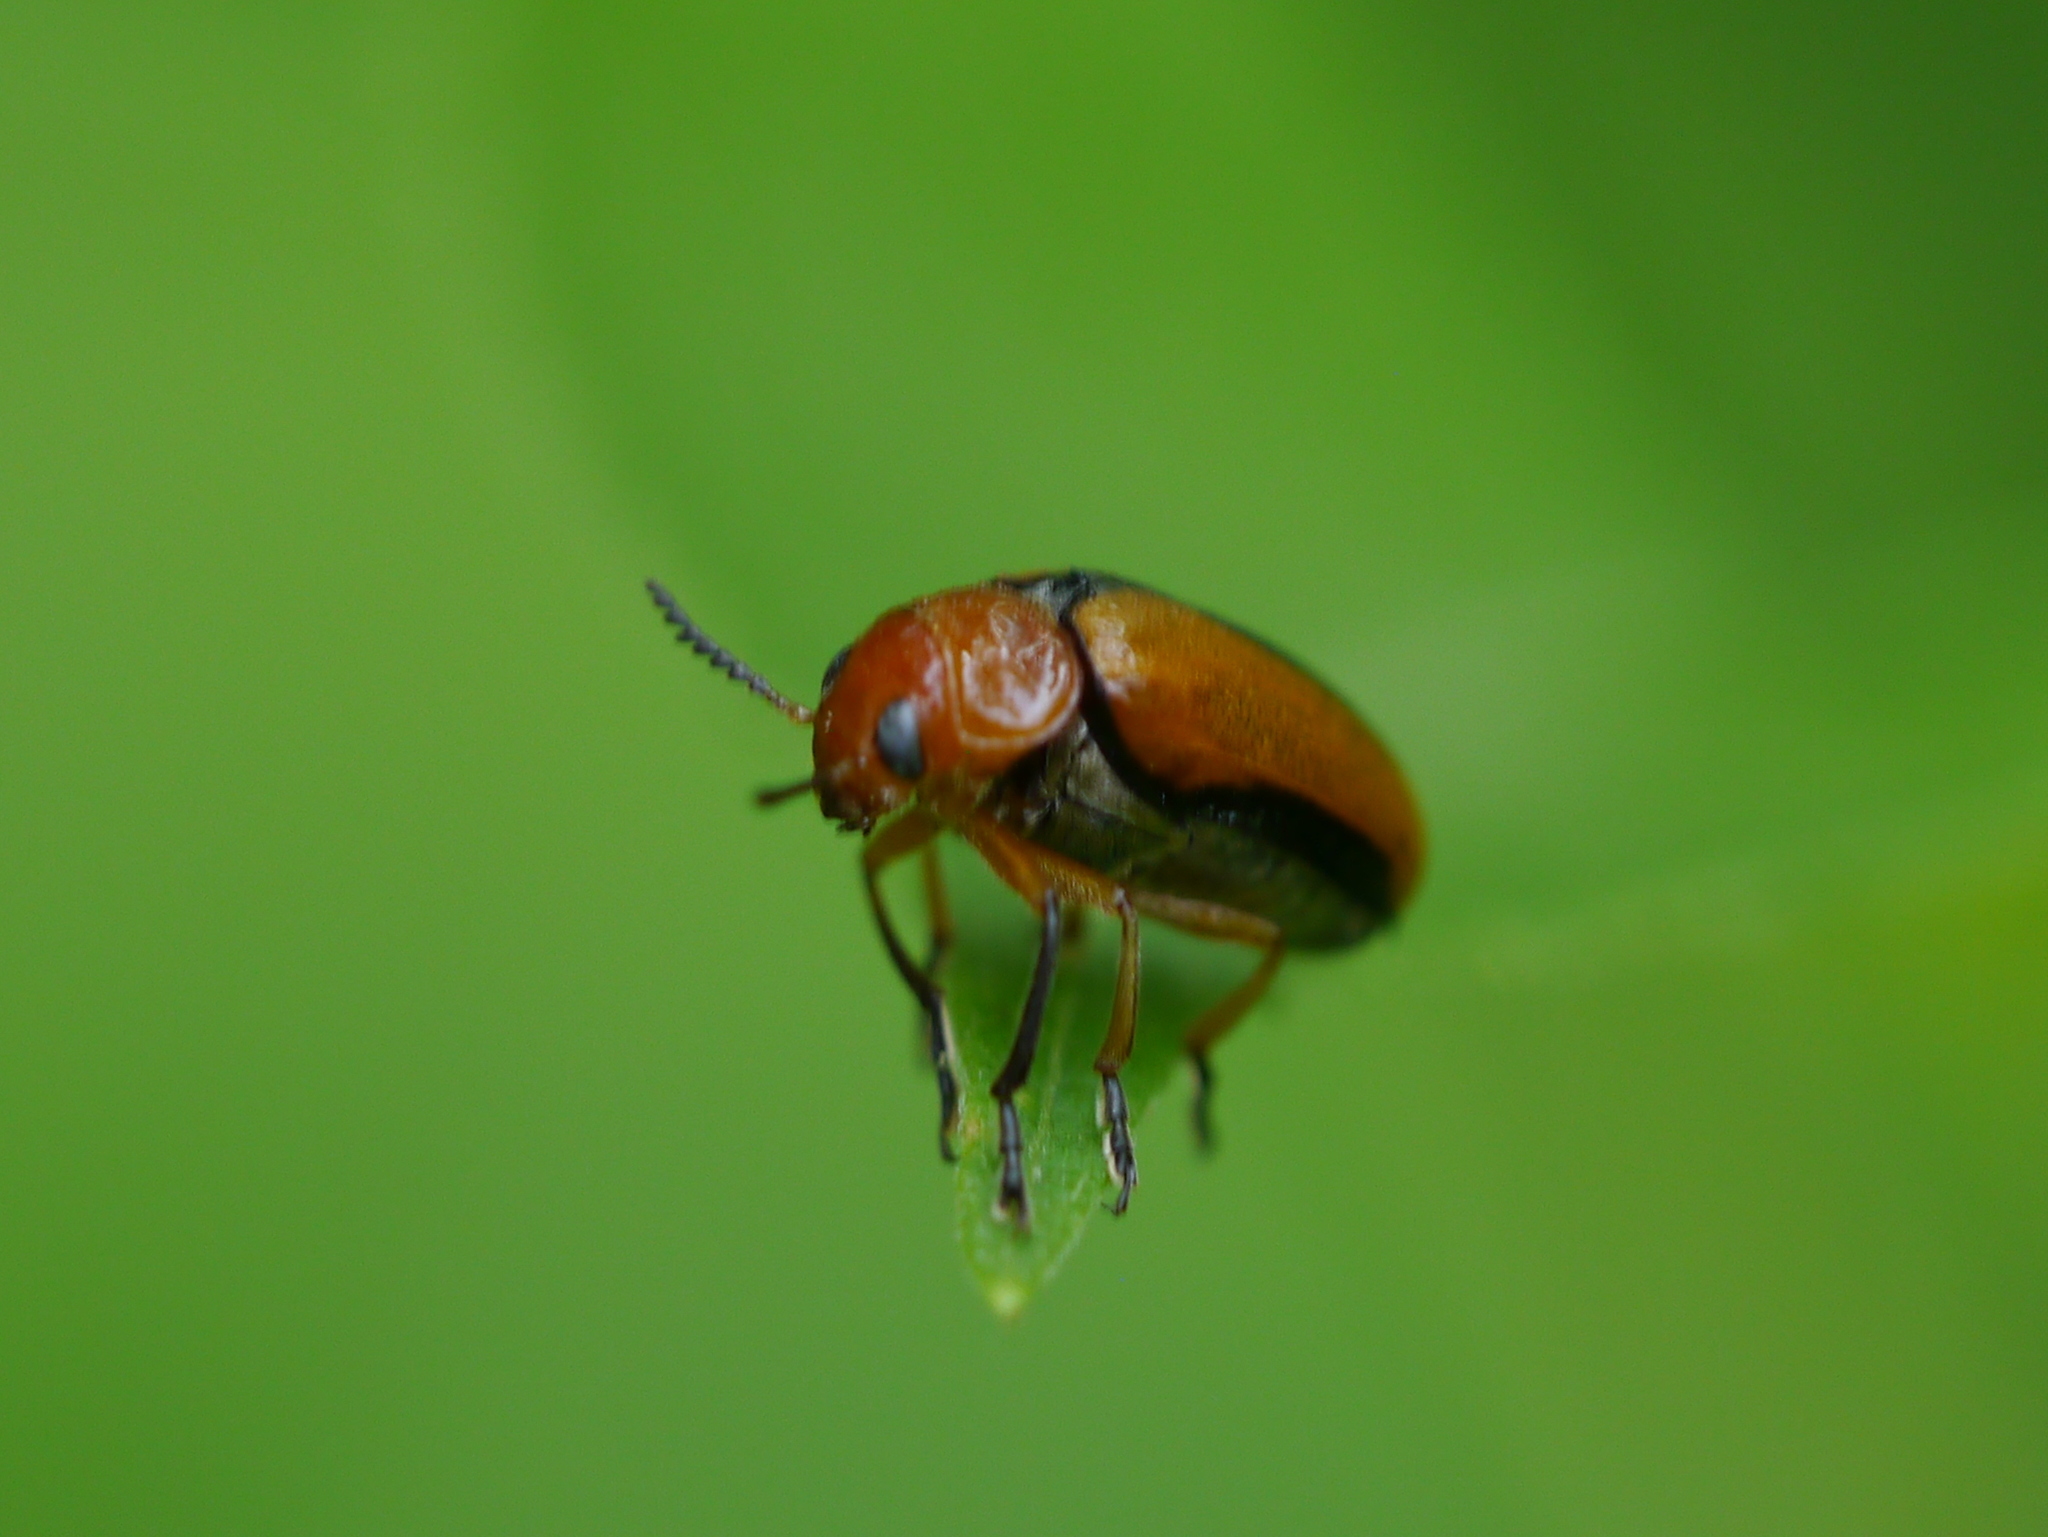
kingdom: Animalia
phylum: Arthropoda
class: Insecta
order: Coleoptera
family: Chrysomelidae
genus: Anomoea
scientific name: Anomoea laticlavia
